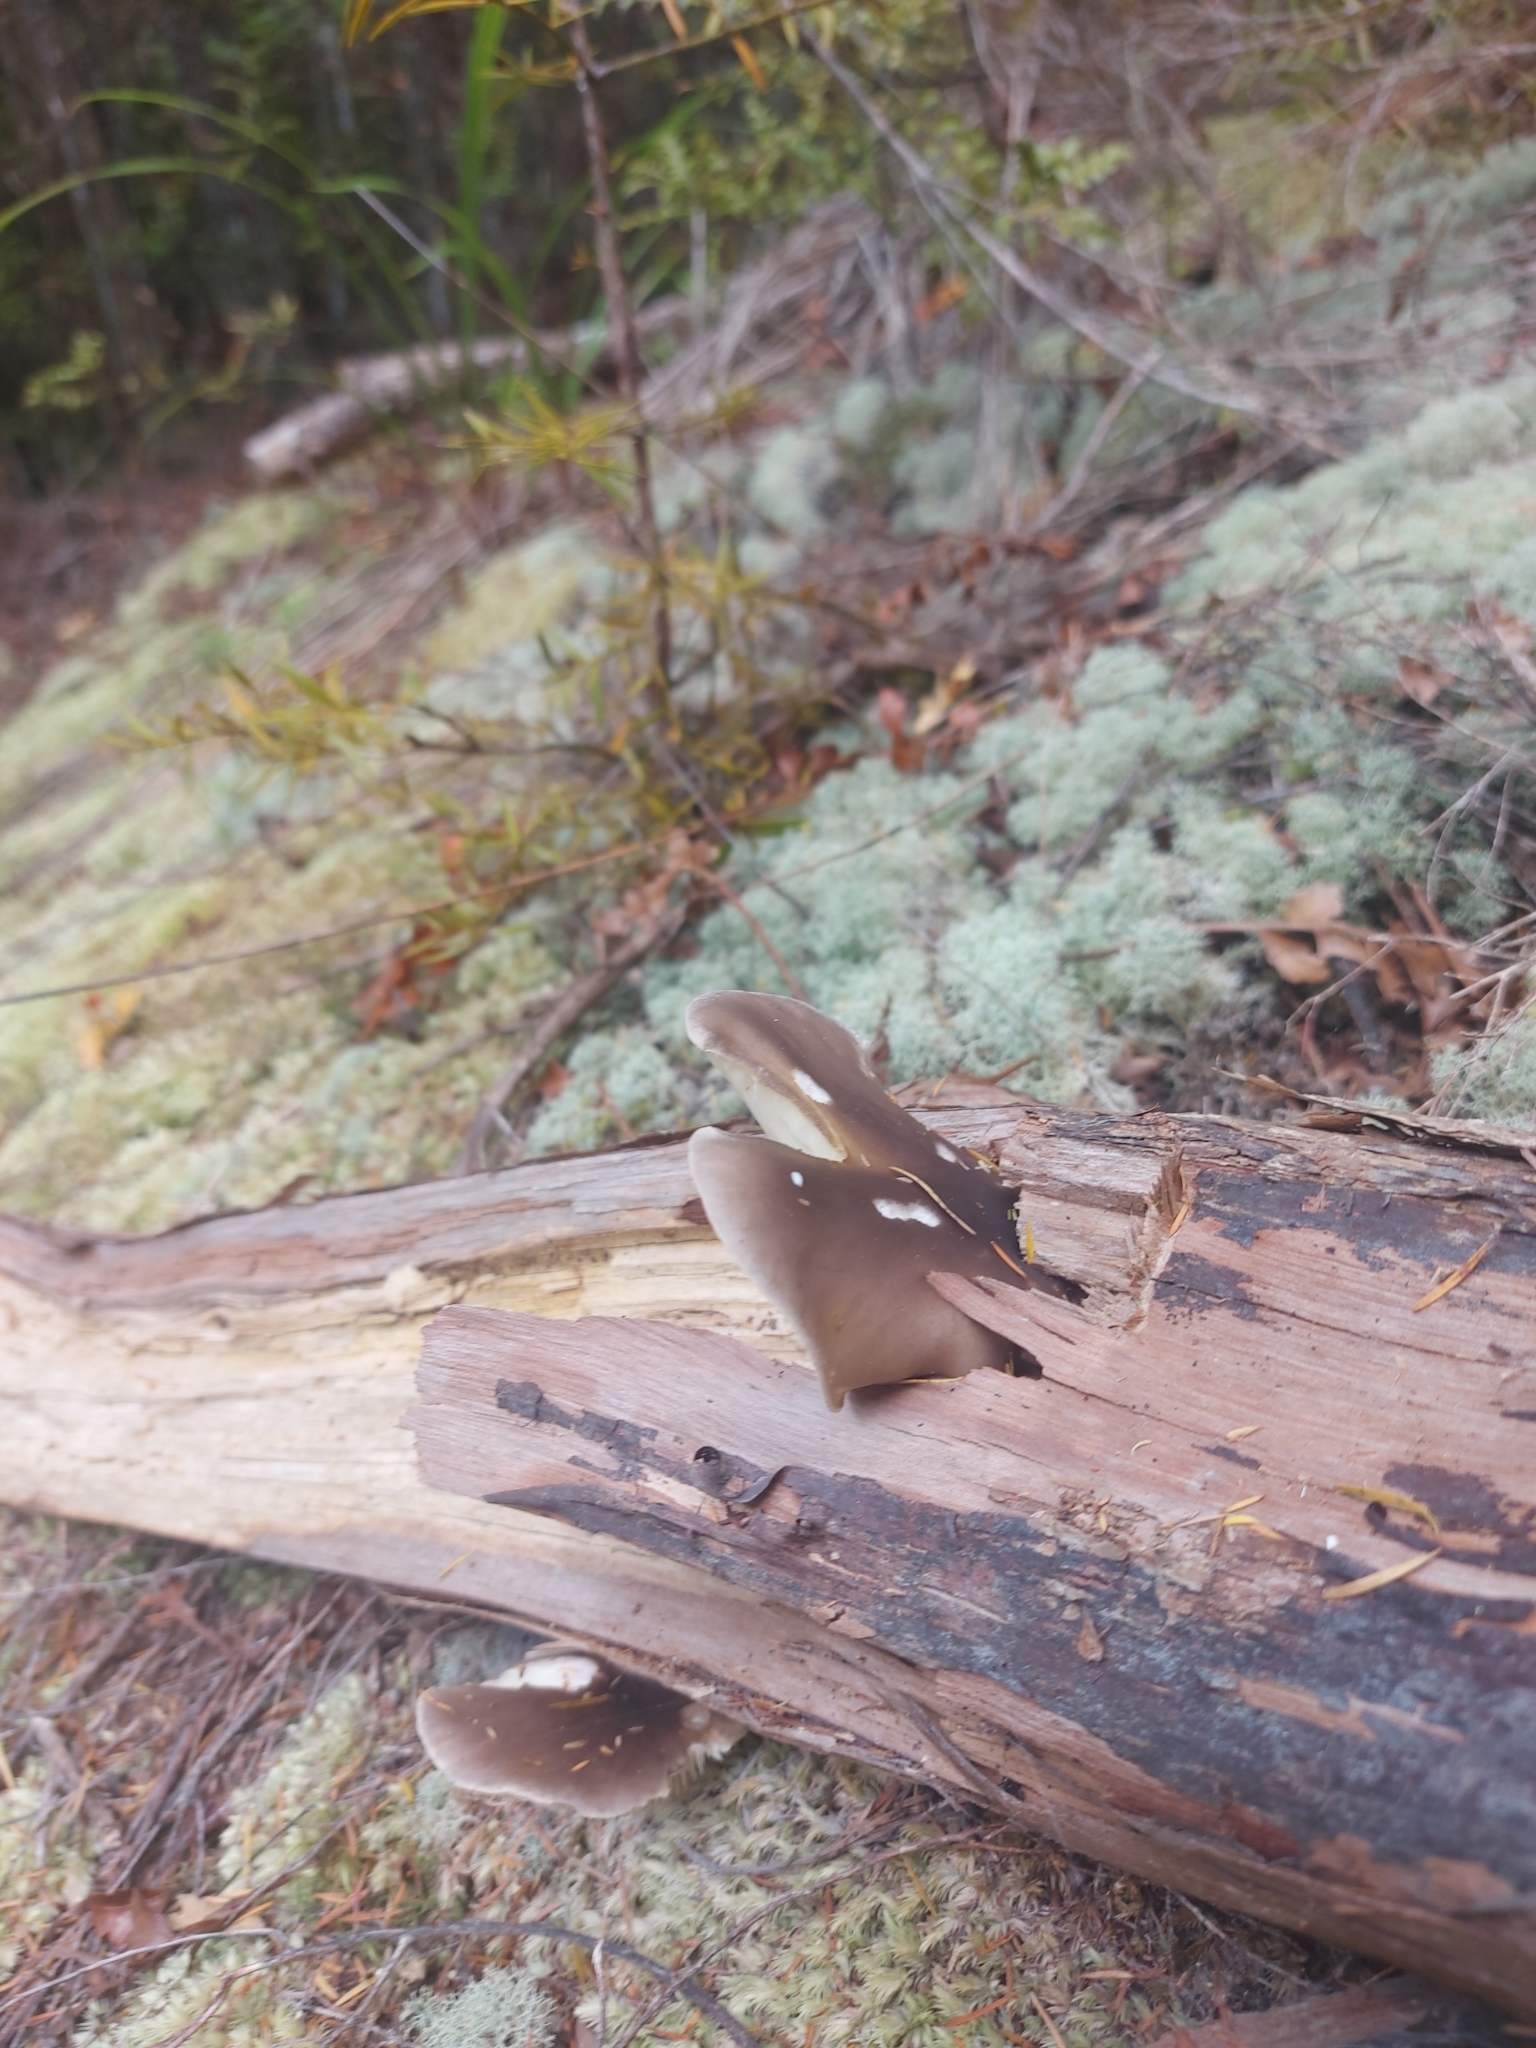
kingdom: Fungi
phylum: Basidiomycota
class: Agaricomycetes
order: Agaricales
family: Pleurotaceae
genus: Pleurotus
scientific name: Pleurotus australis
